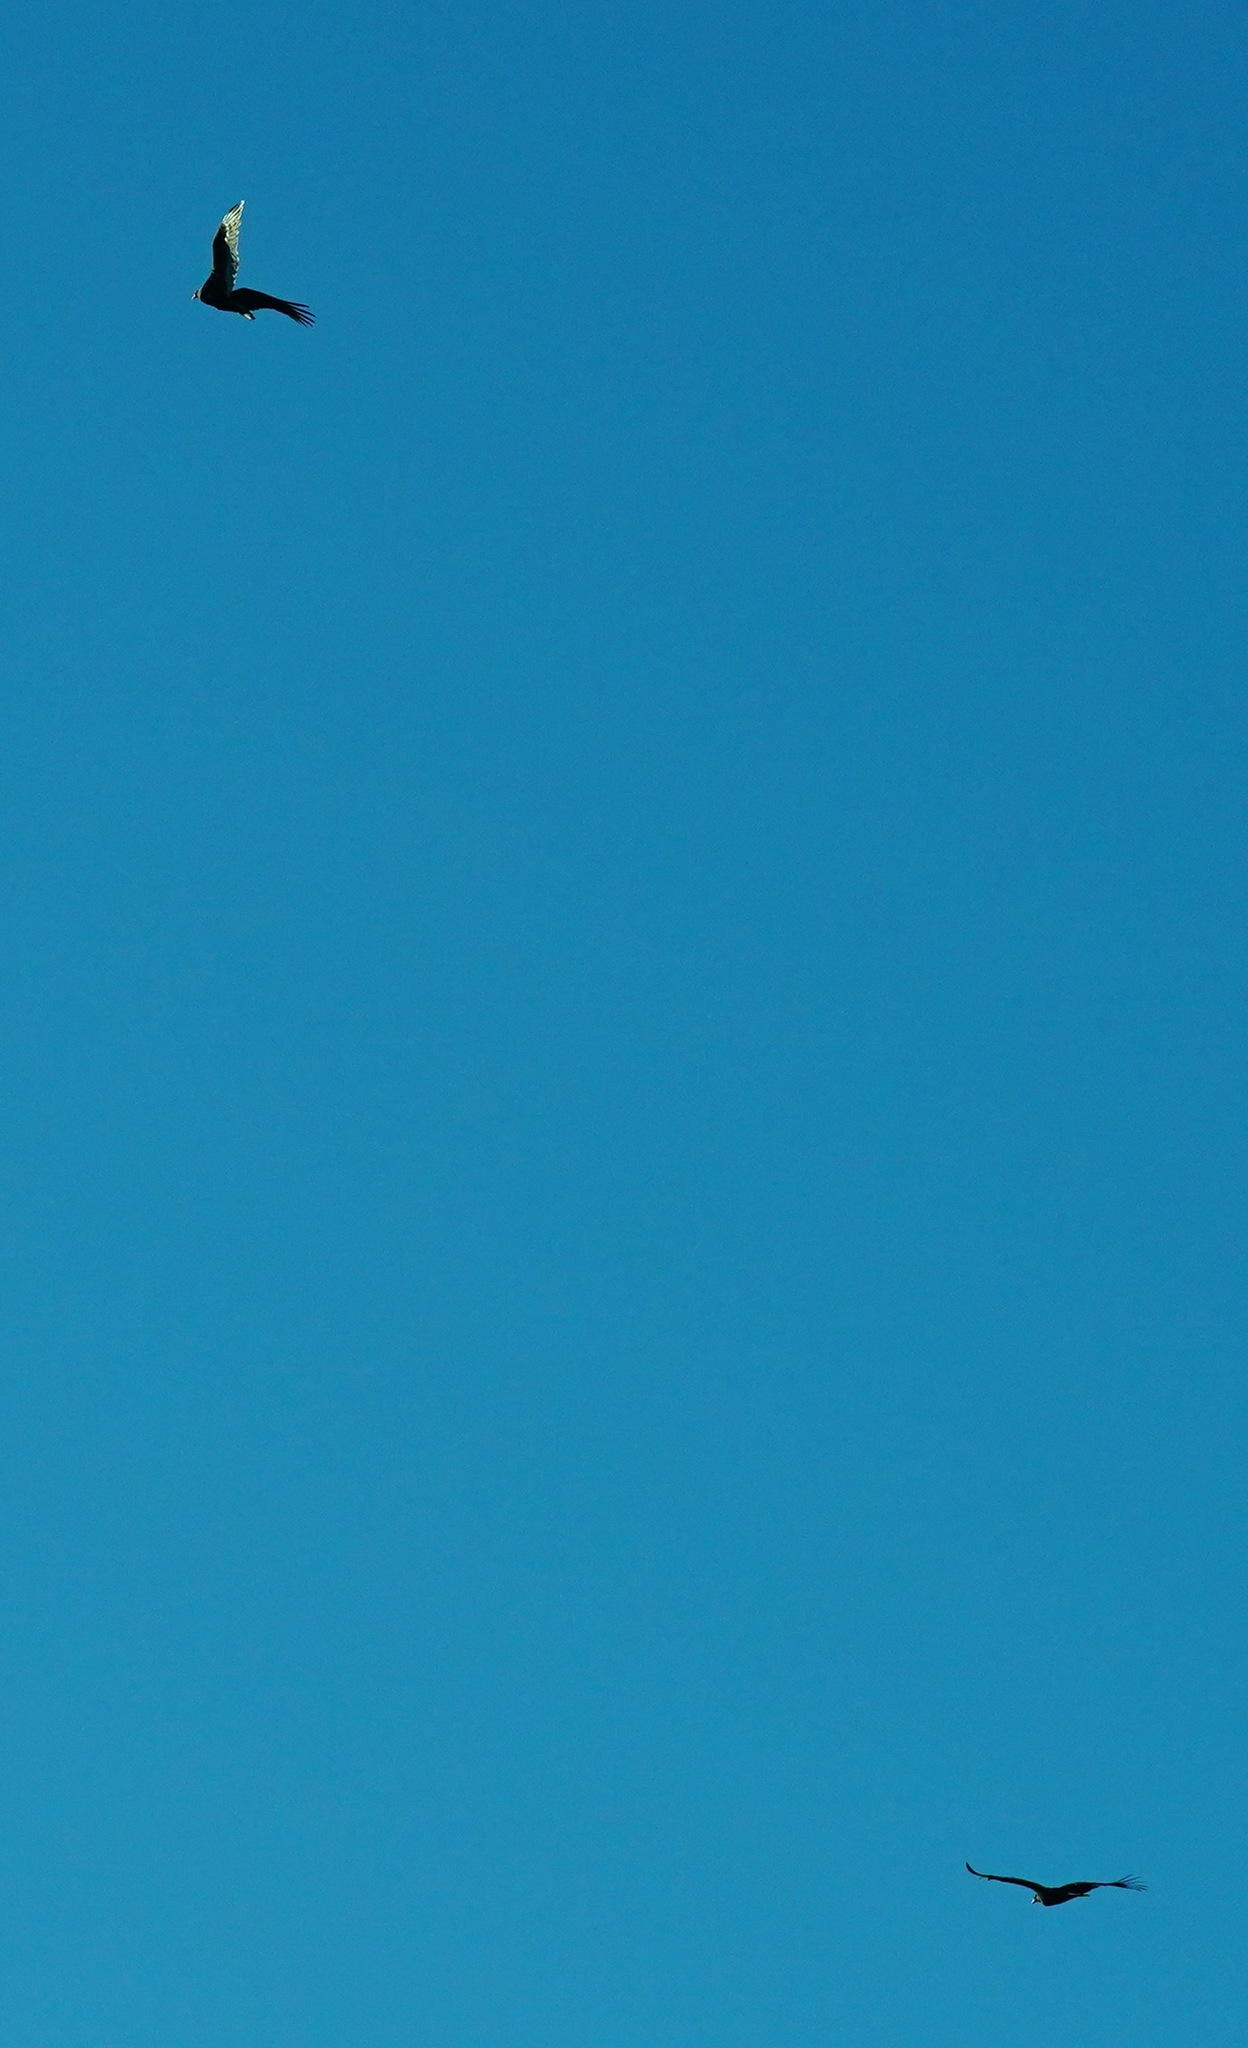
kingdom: Animalia
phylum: Chordata
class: Aves
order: Accipitriformes
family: Cathartidae
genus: Cathartes
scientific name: Cathartes aura
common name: Turkey vulture
